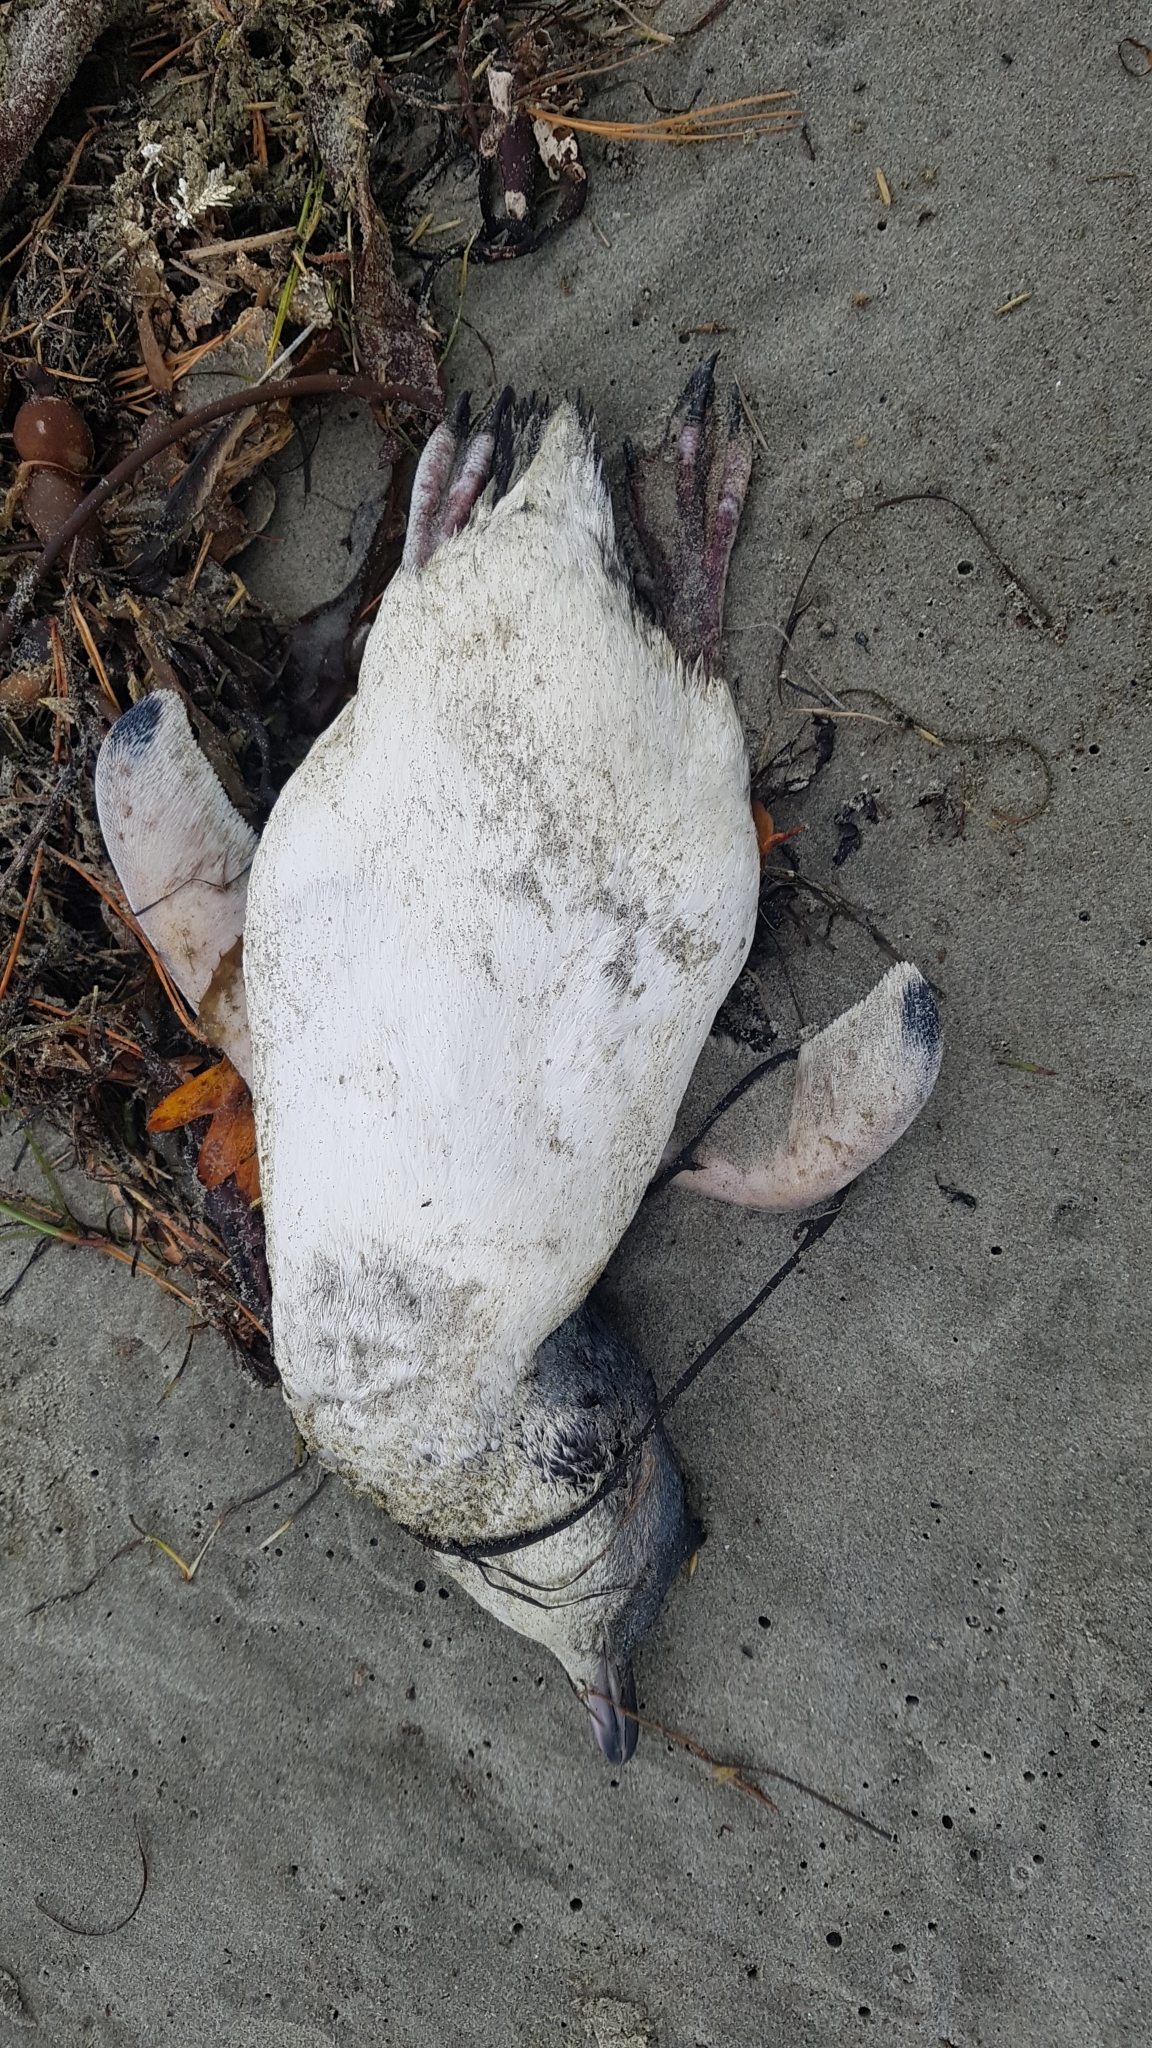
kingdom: Animalia
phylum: Chordata
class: Aves
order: Sphenisciformes
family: Spheniscidae
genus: Eudyptula
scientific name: Eudyptula minor
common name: Little penguin
